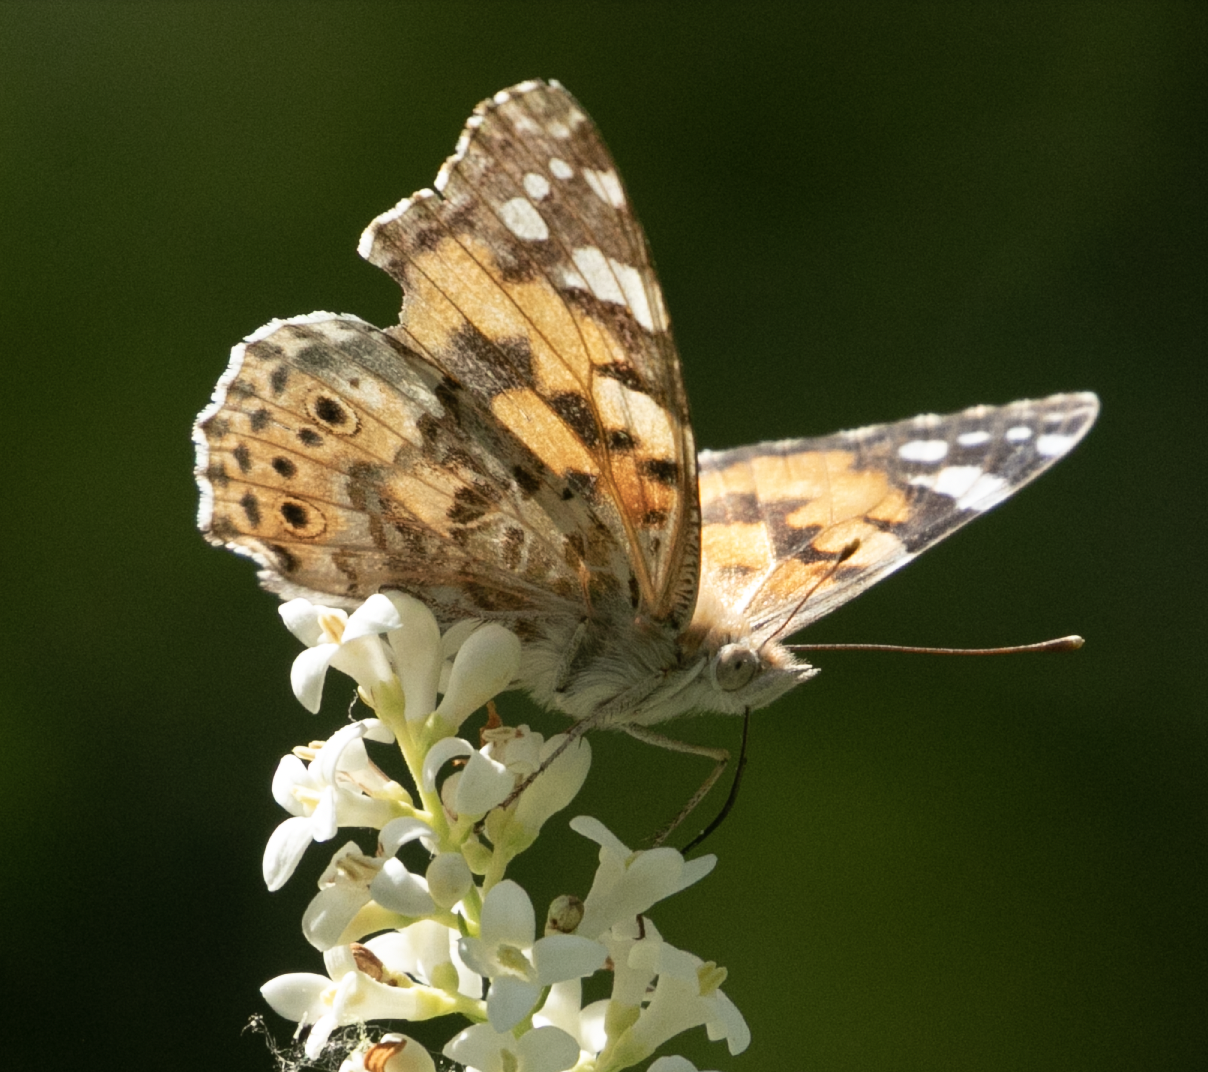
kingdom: Animalia
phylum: Arthropoda
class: Insecta
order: Lepidoptera
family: Nymphalidae
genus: Vanessa
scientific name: Vanessa cardui
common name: Painted lady
